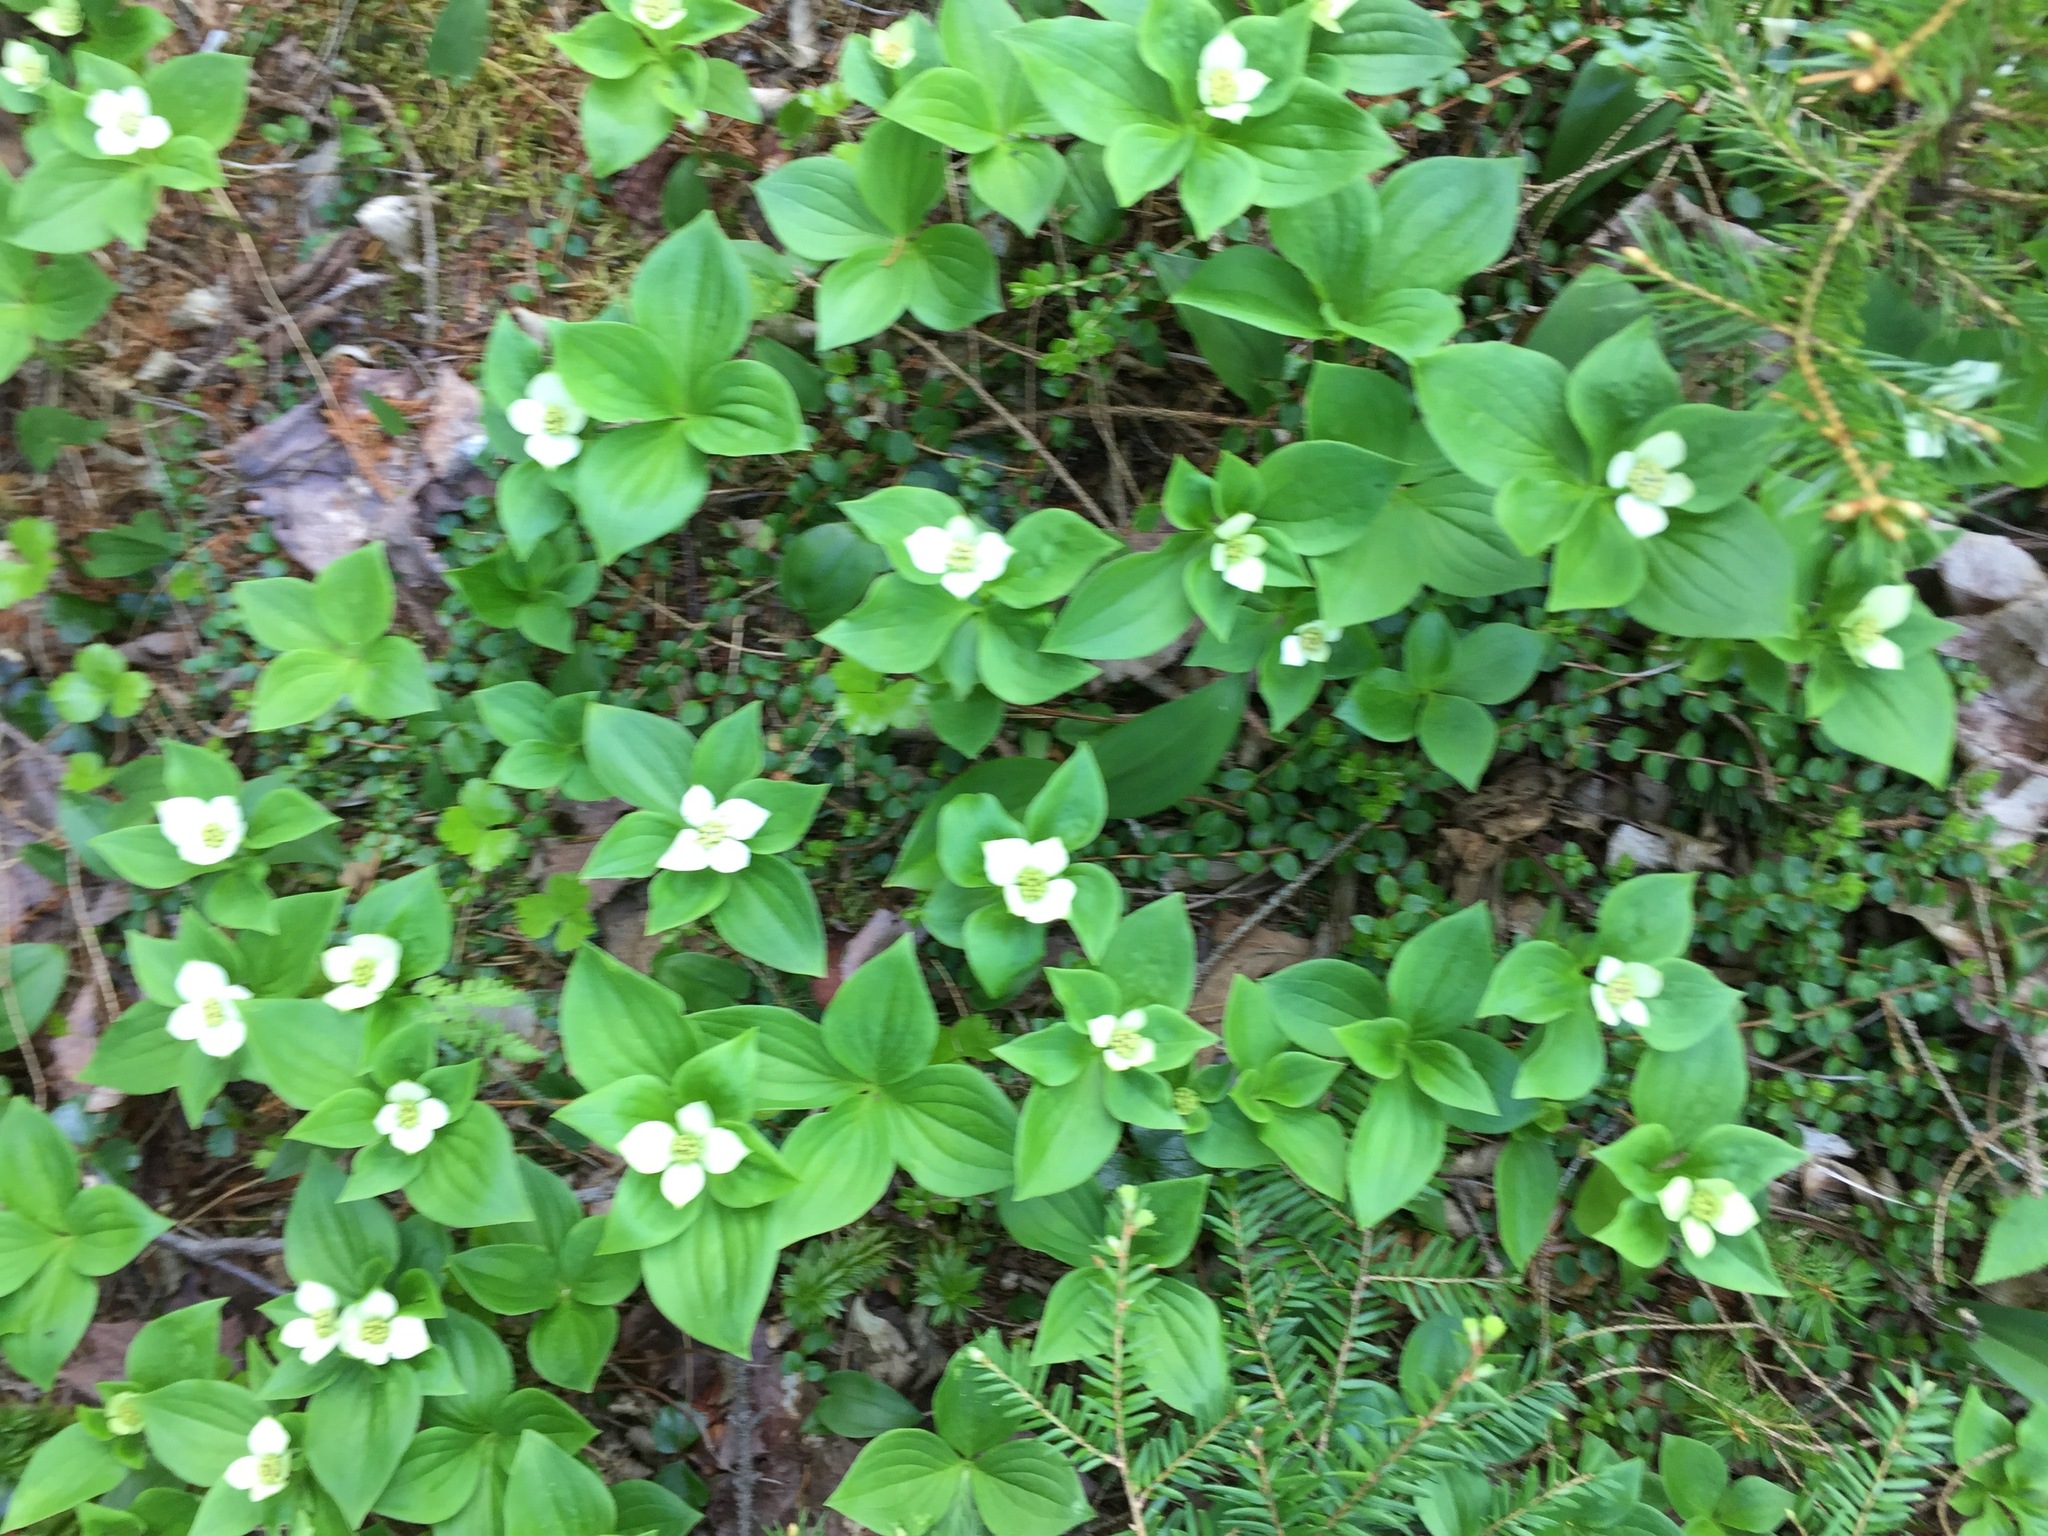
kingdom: Plantae
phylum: Tracheophyta
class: Magnoliopsida
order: Cornales
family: Cornaceae
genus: Cornus
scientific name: Cornus canadensis
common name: Creeping dogwood
